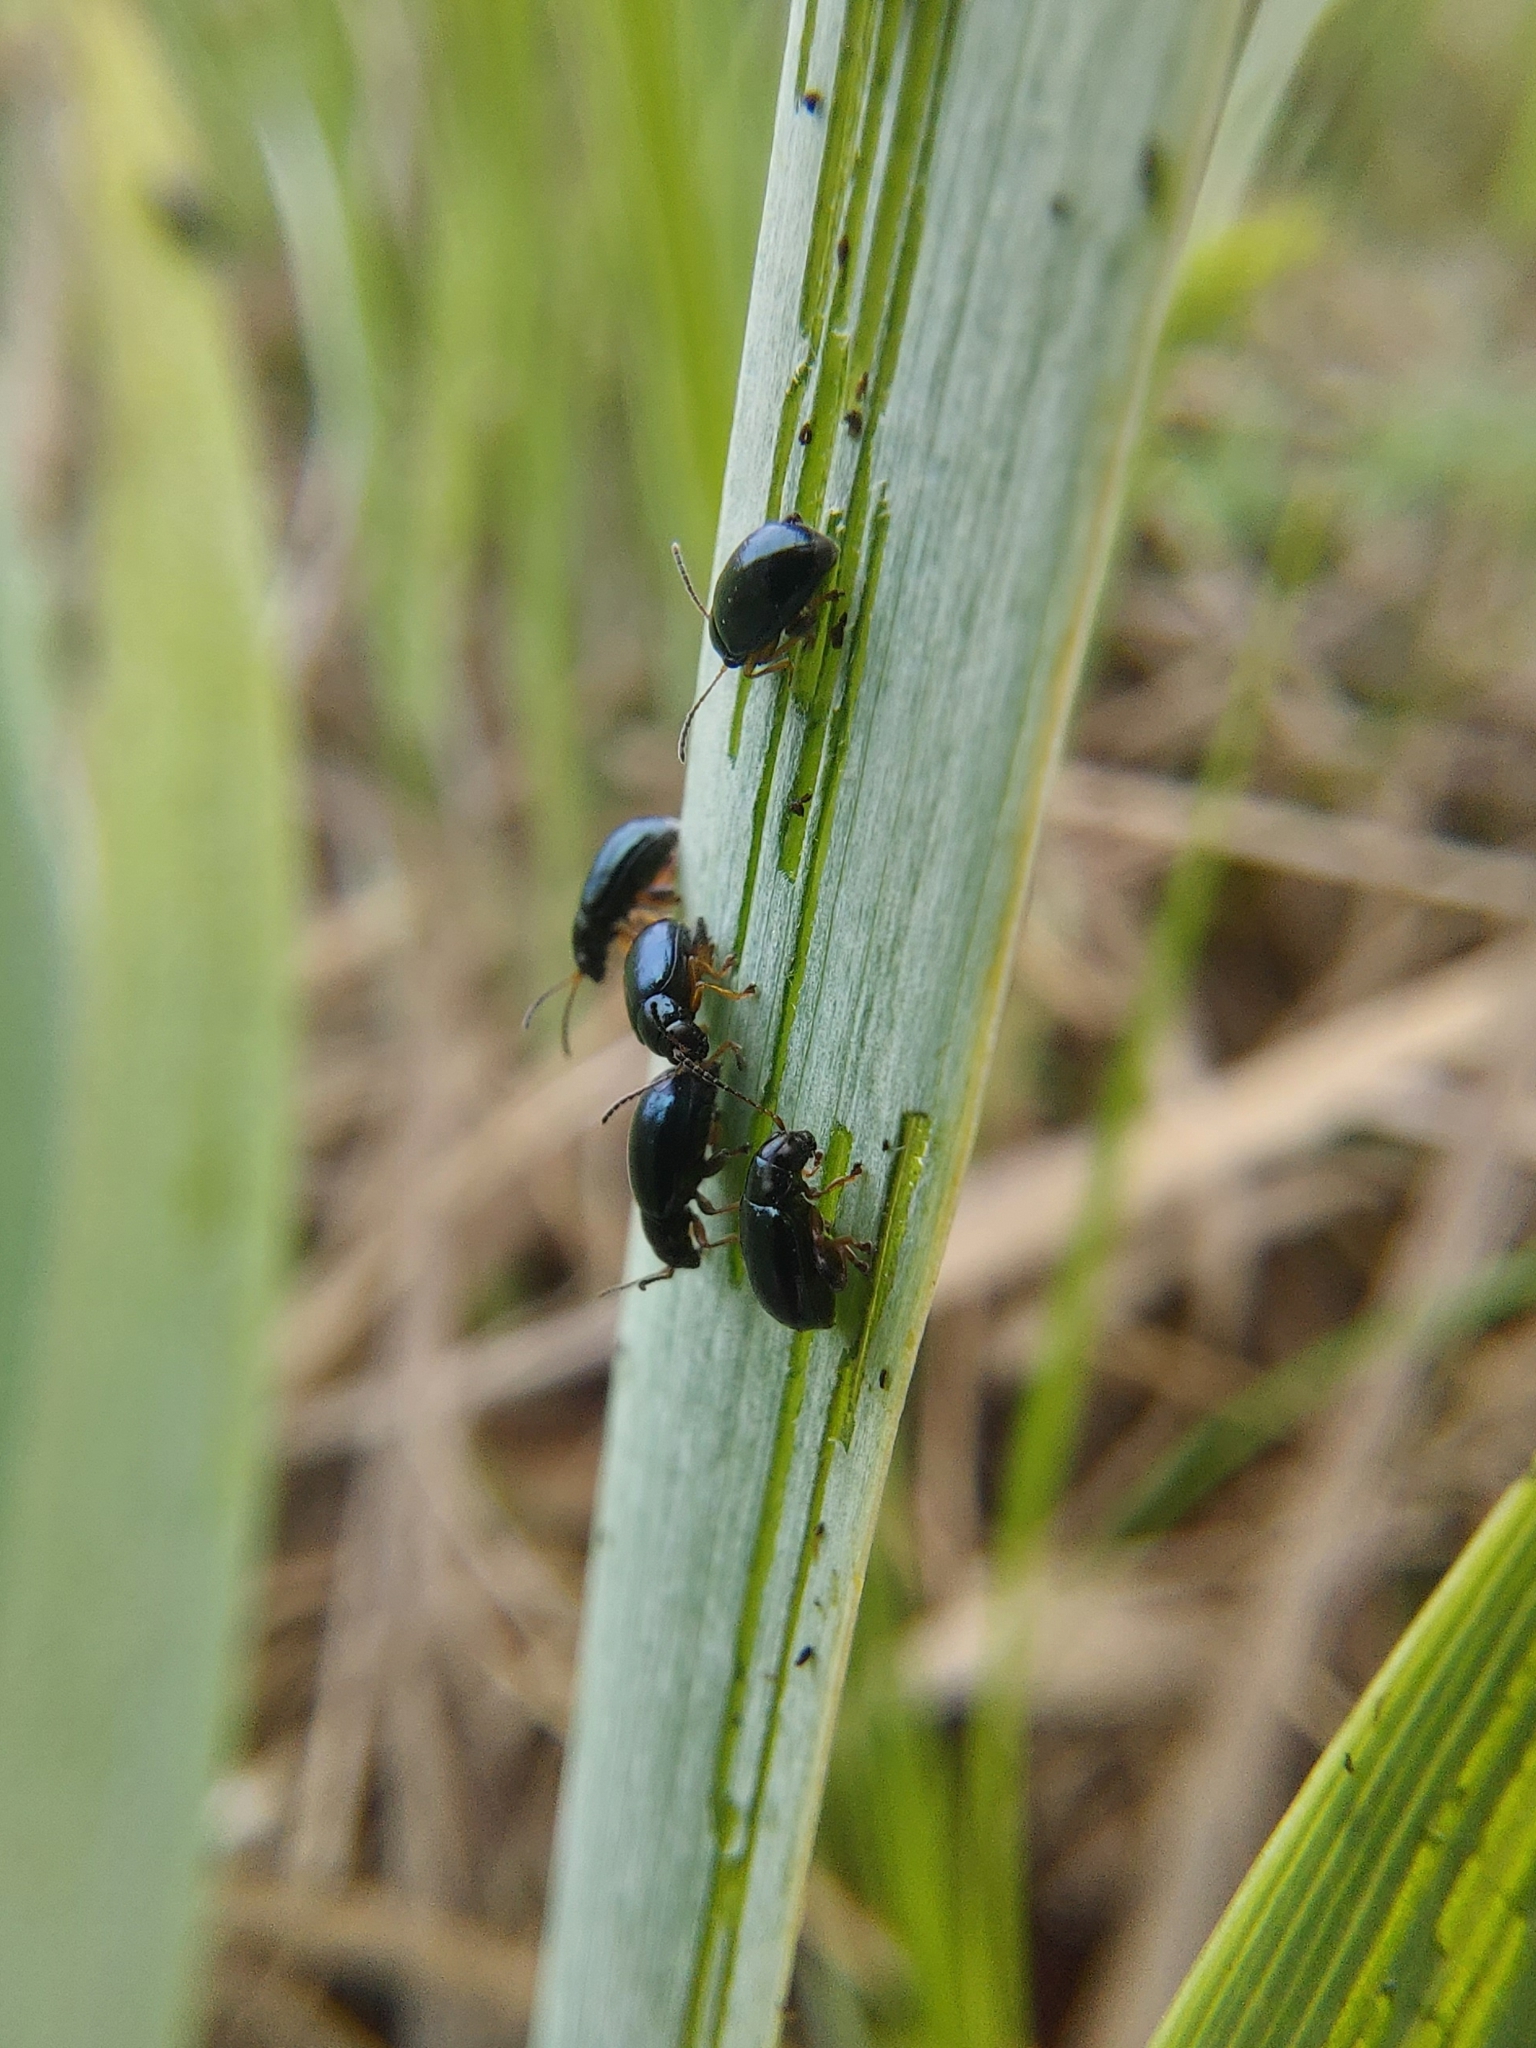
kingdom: Animalia
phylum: Arthropoda
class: Insecta
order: Coleoptera
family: Chrysomelidae
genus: Aphthona
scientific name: Aphthona nonstriata
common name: Iris flea beetle
